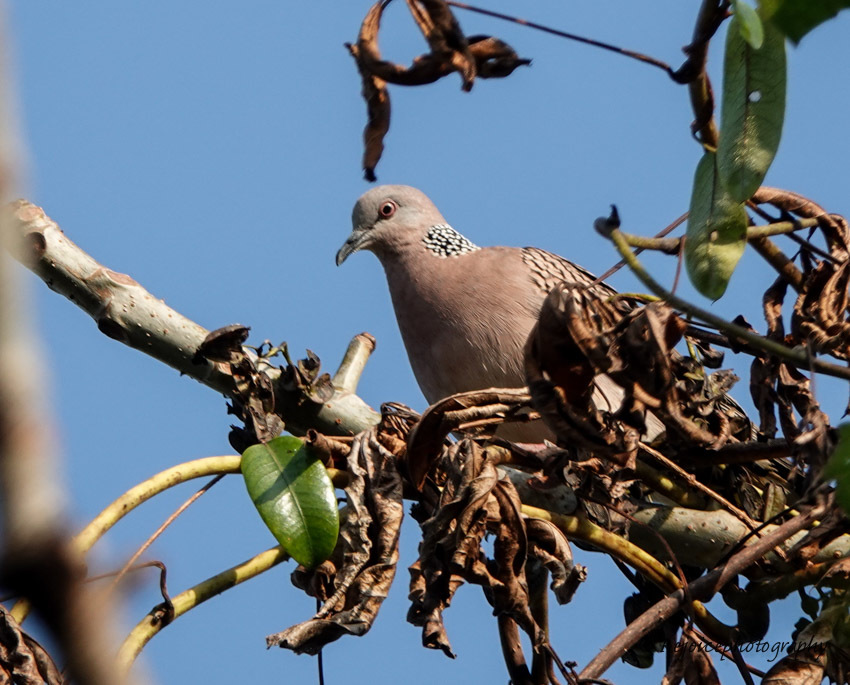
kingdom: Animalia
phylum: Chordata
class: Aves
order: Columbiformes
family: Columbidae
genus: Spilopelia
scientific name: Spilopelia chinensis
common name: Spotted dove
